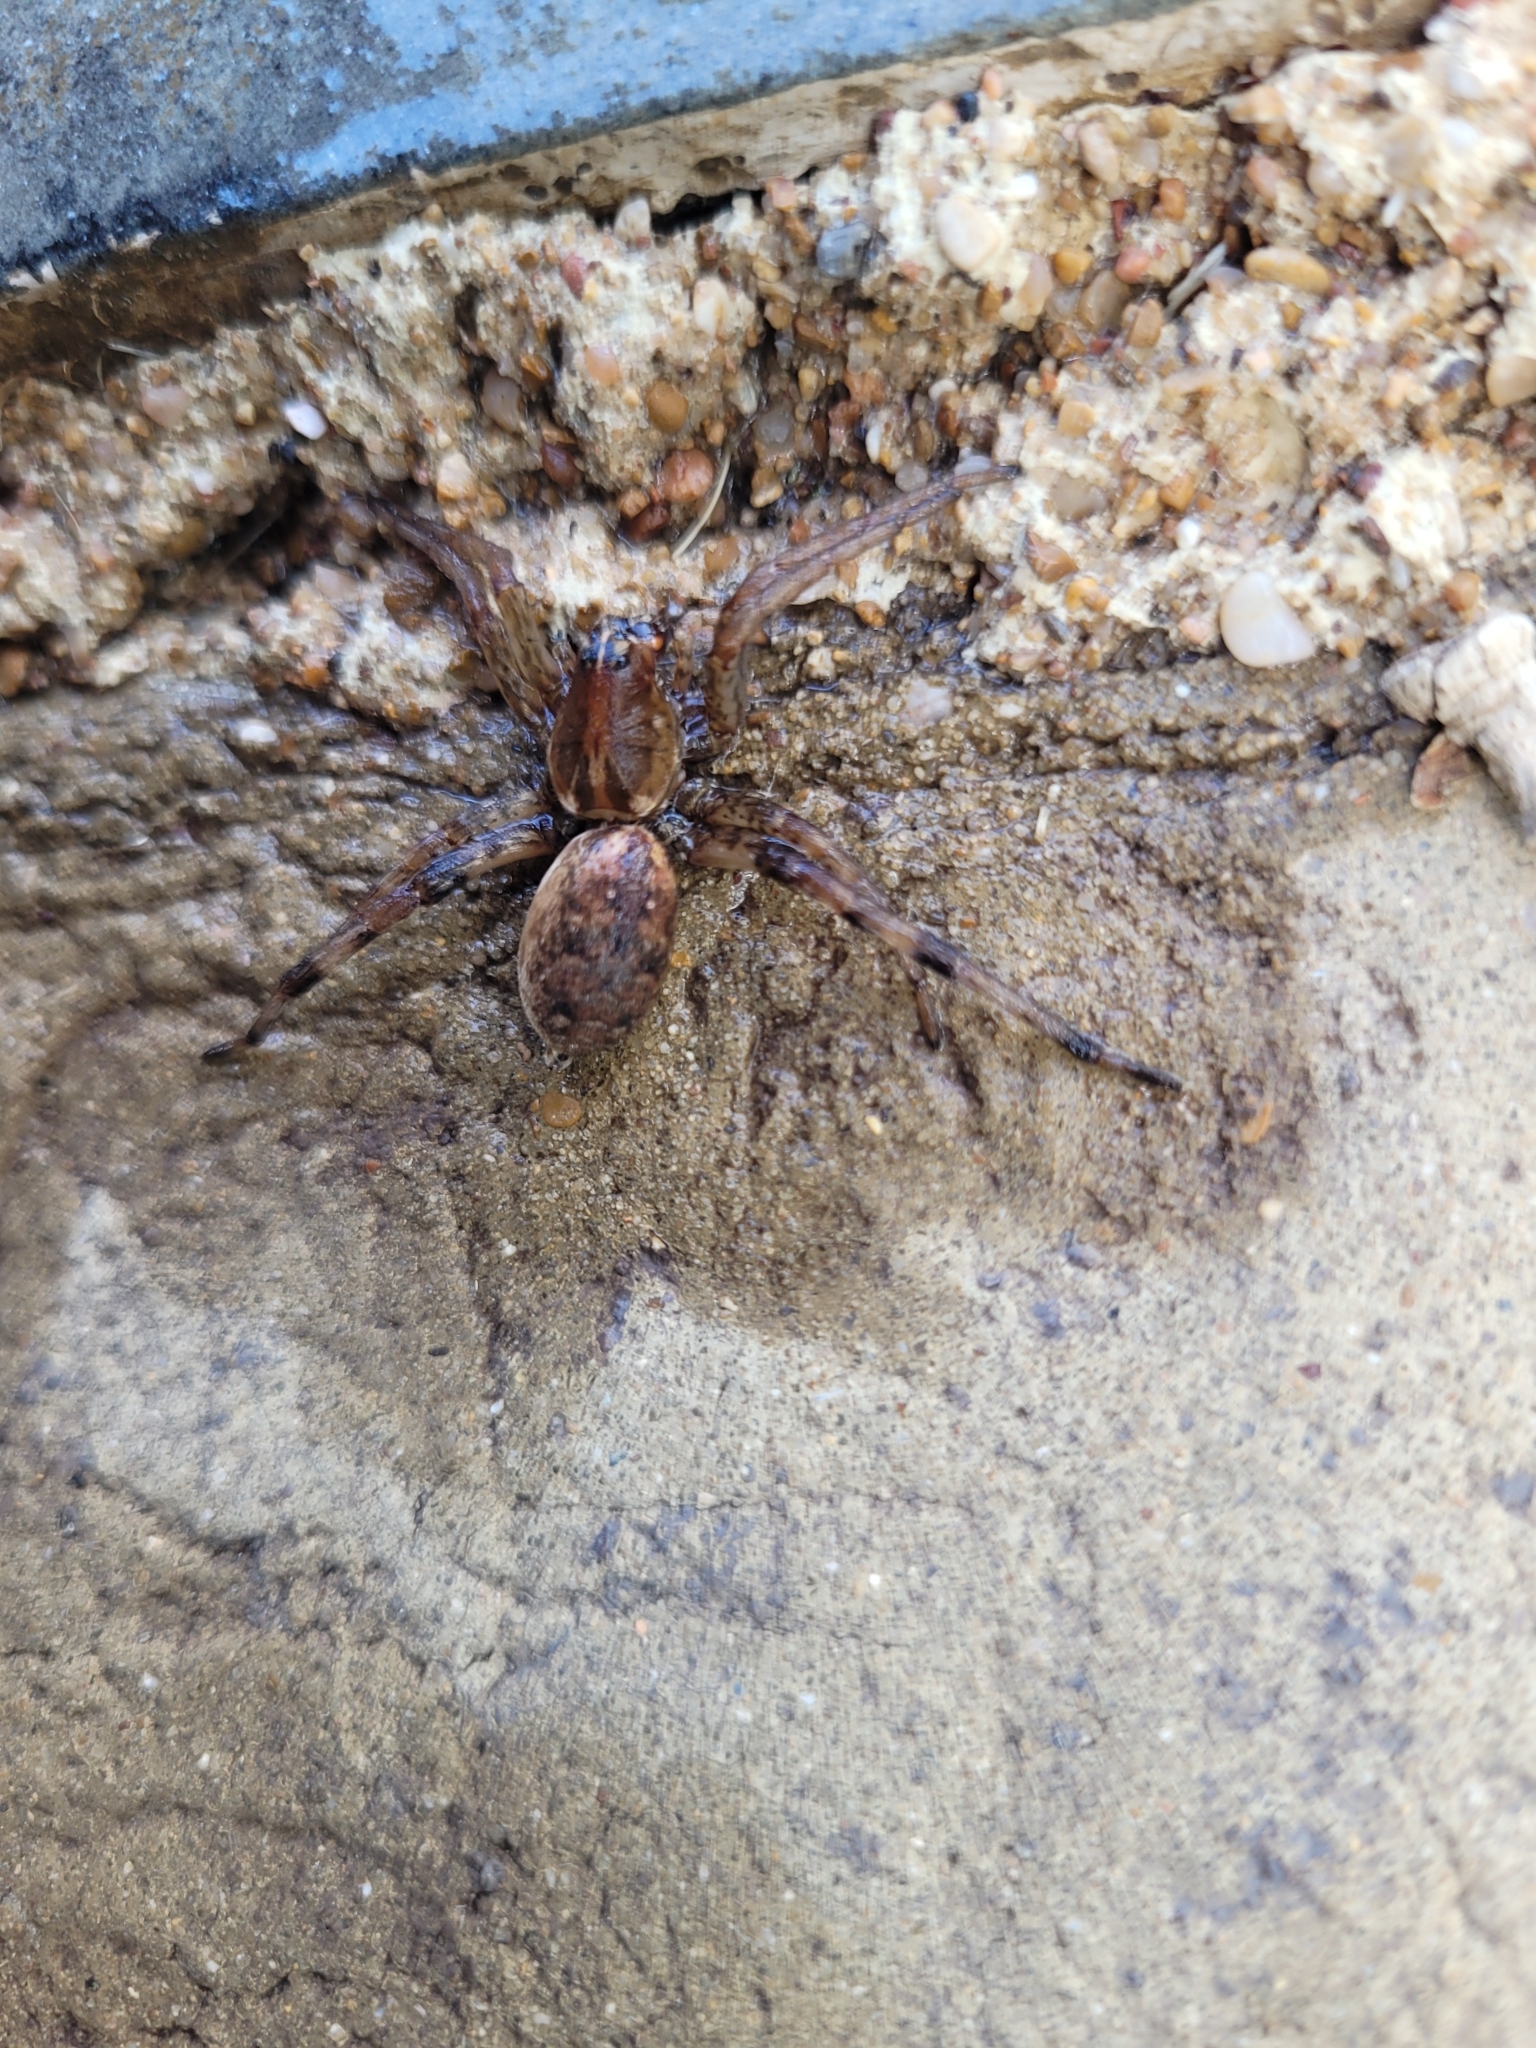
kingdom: Animalia
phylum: Arthropoda
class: Arachnida
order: Araneae
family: Lycosidae
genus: Hogna
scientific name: Hogna antelucana
